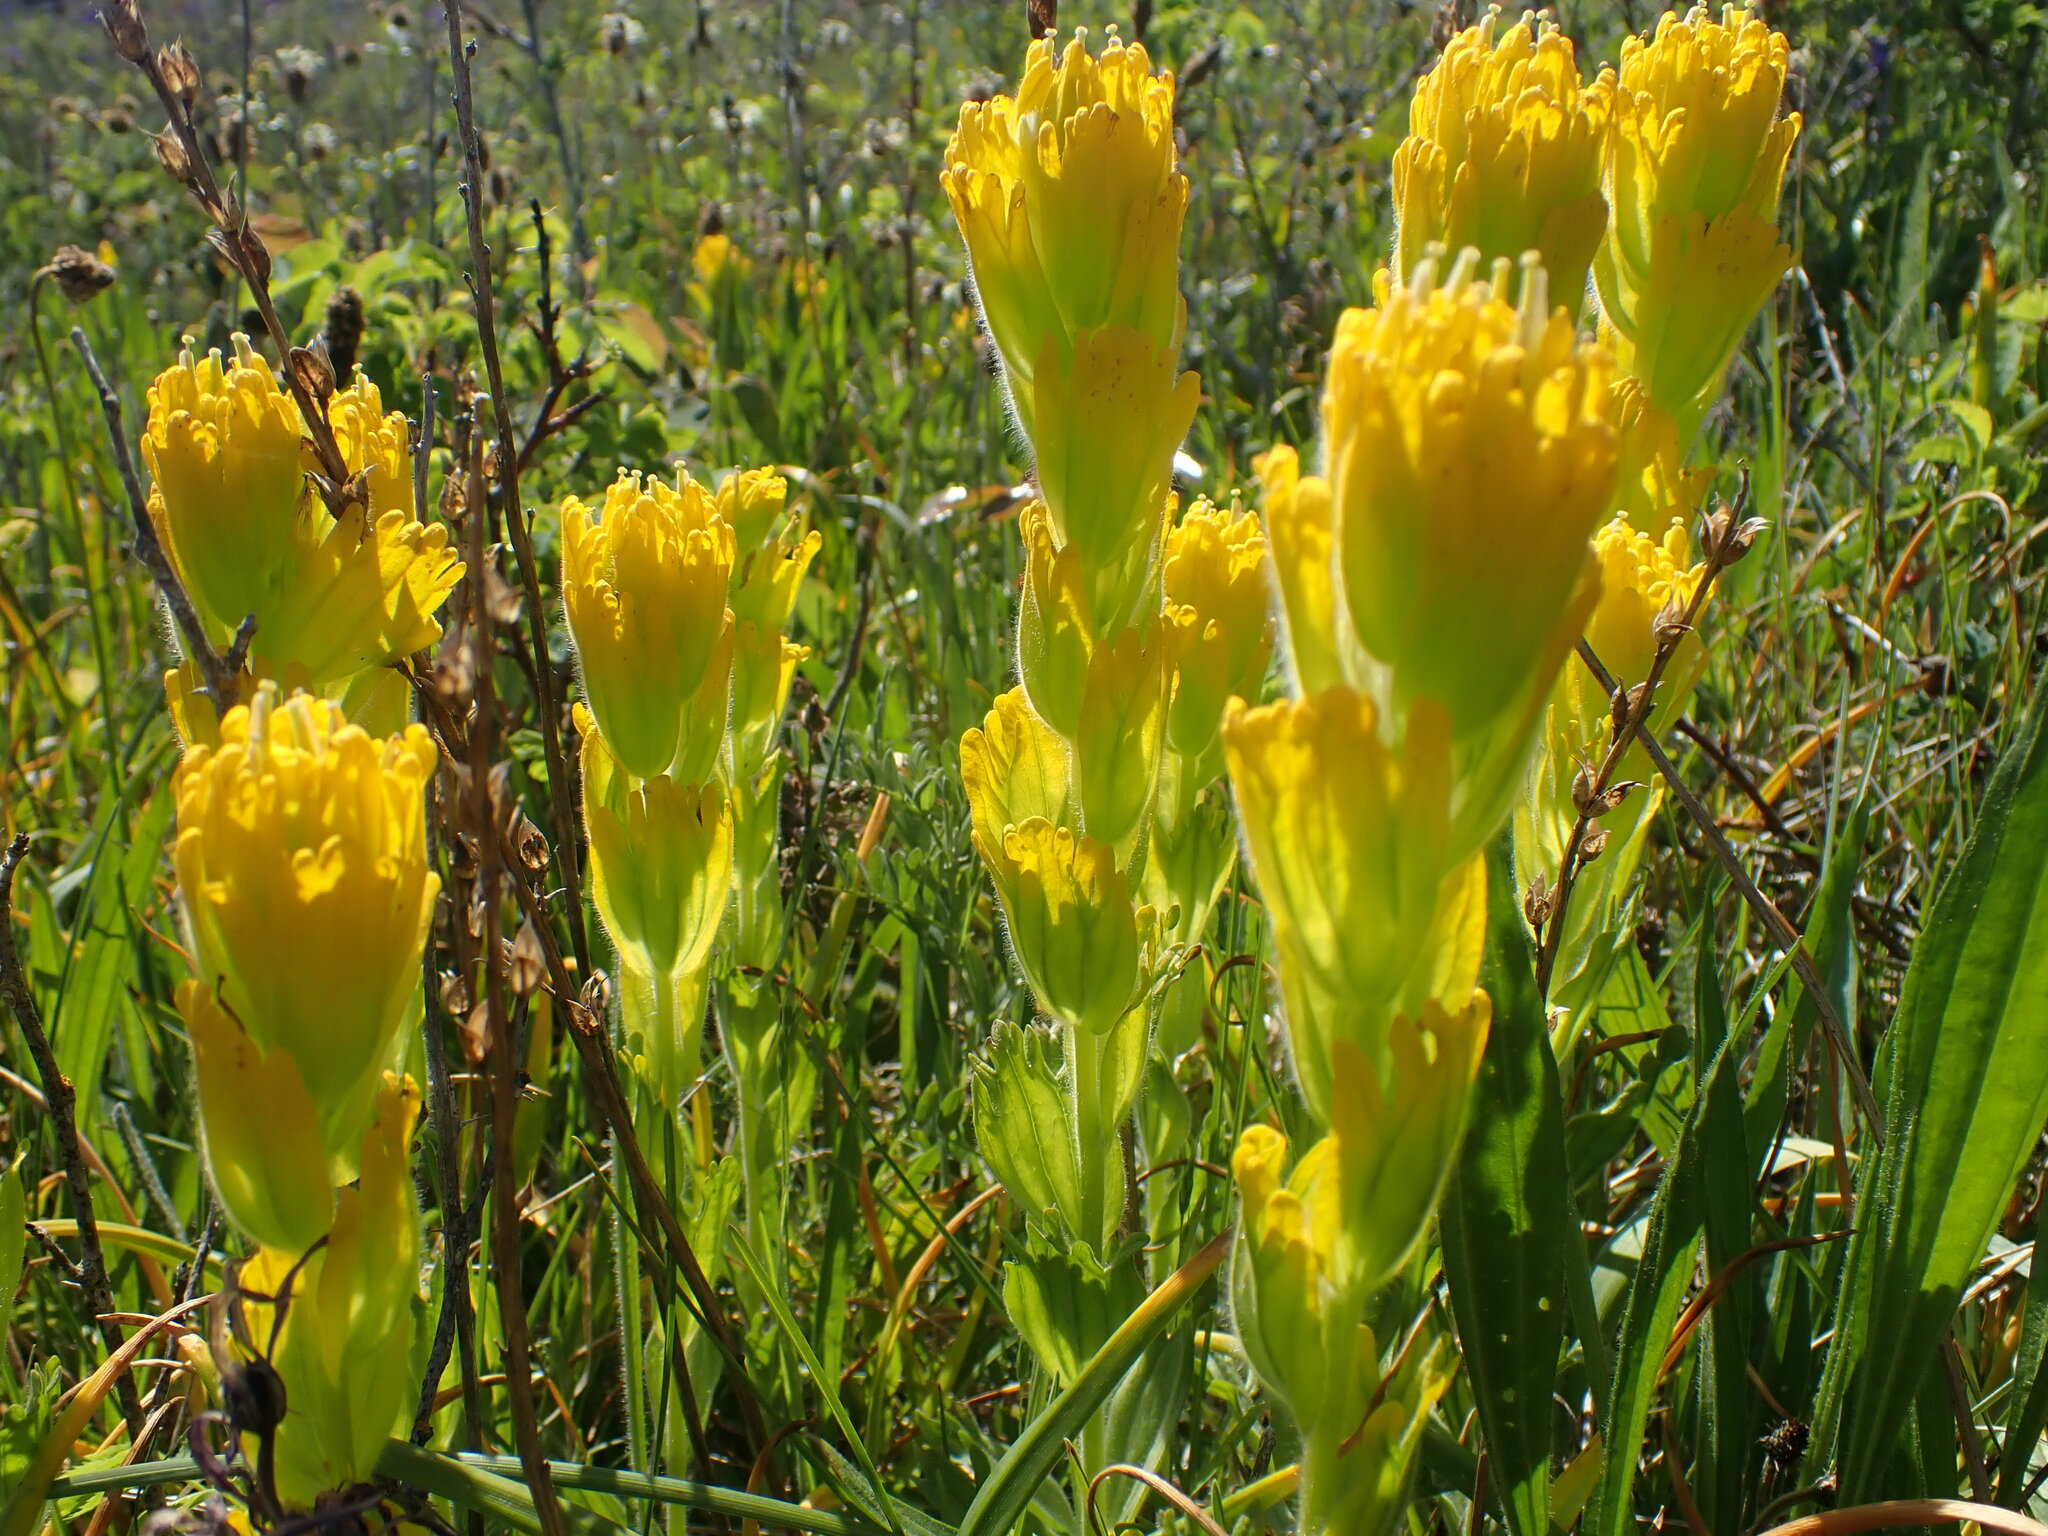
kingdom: Plantae
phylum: Tracheophyta
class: Magnoliopsida
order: Lamiales
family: Orobanchaceae
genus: Castilleja
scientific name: Castilleja levisecta
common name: Golden paintbrush
